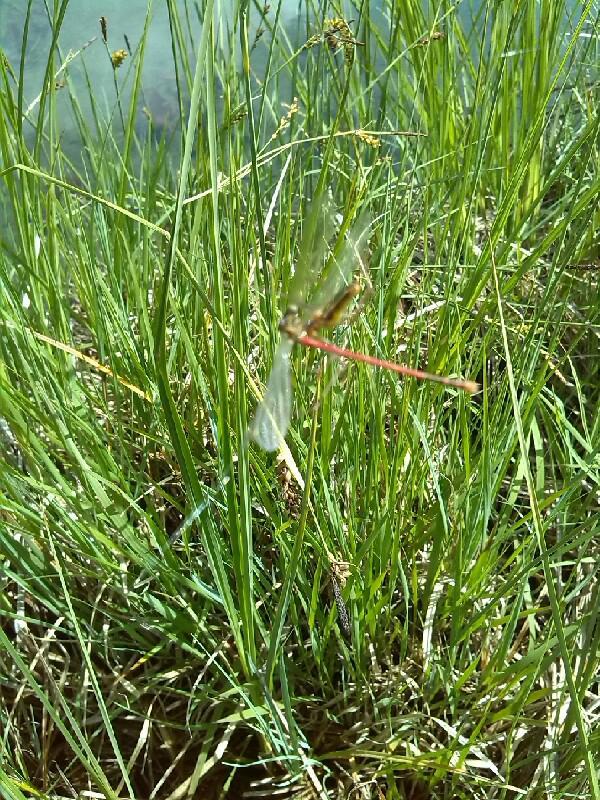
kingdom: Animalia
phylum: Arthropoda
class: Insecta
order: Odonata
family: Coenagrionidae
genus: Pyrrhosoma
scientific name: Pyrrhosoma nymphula
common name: Large red damsel
